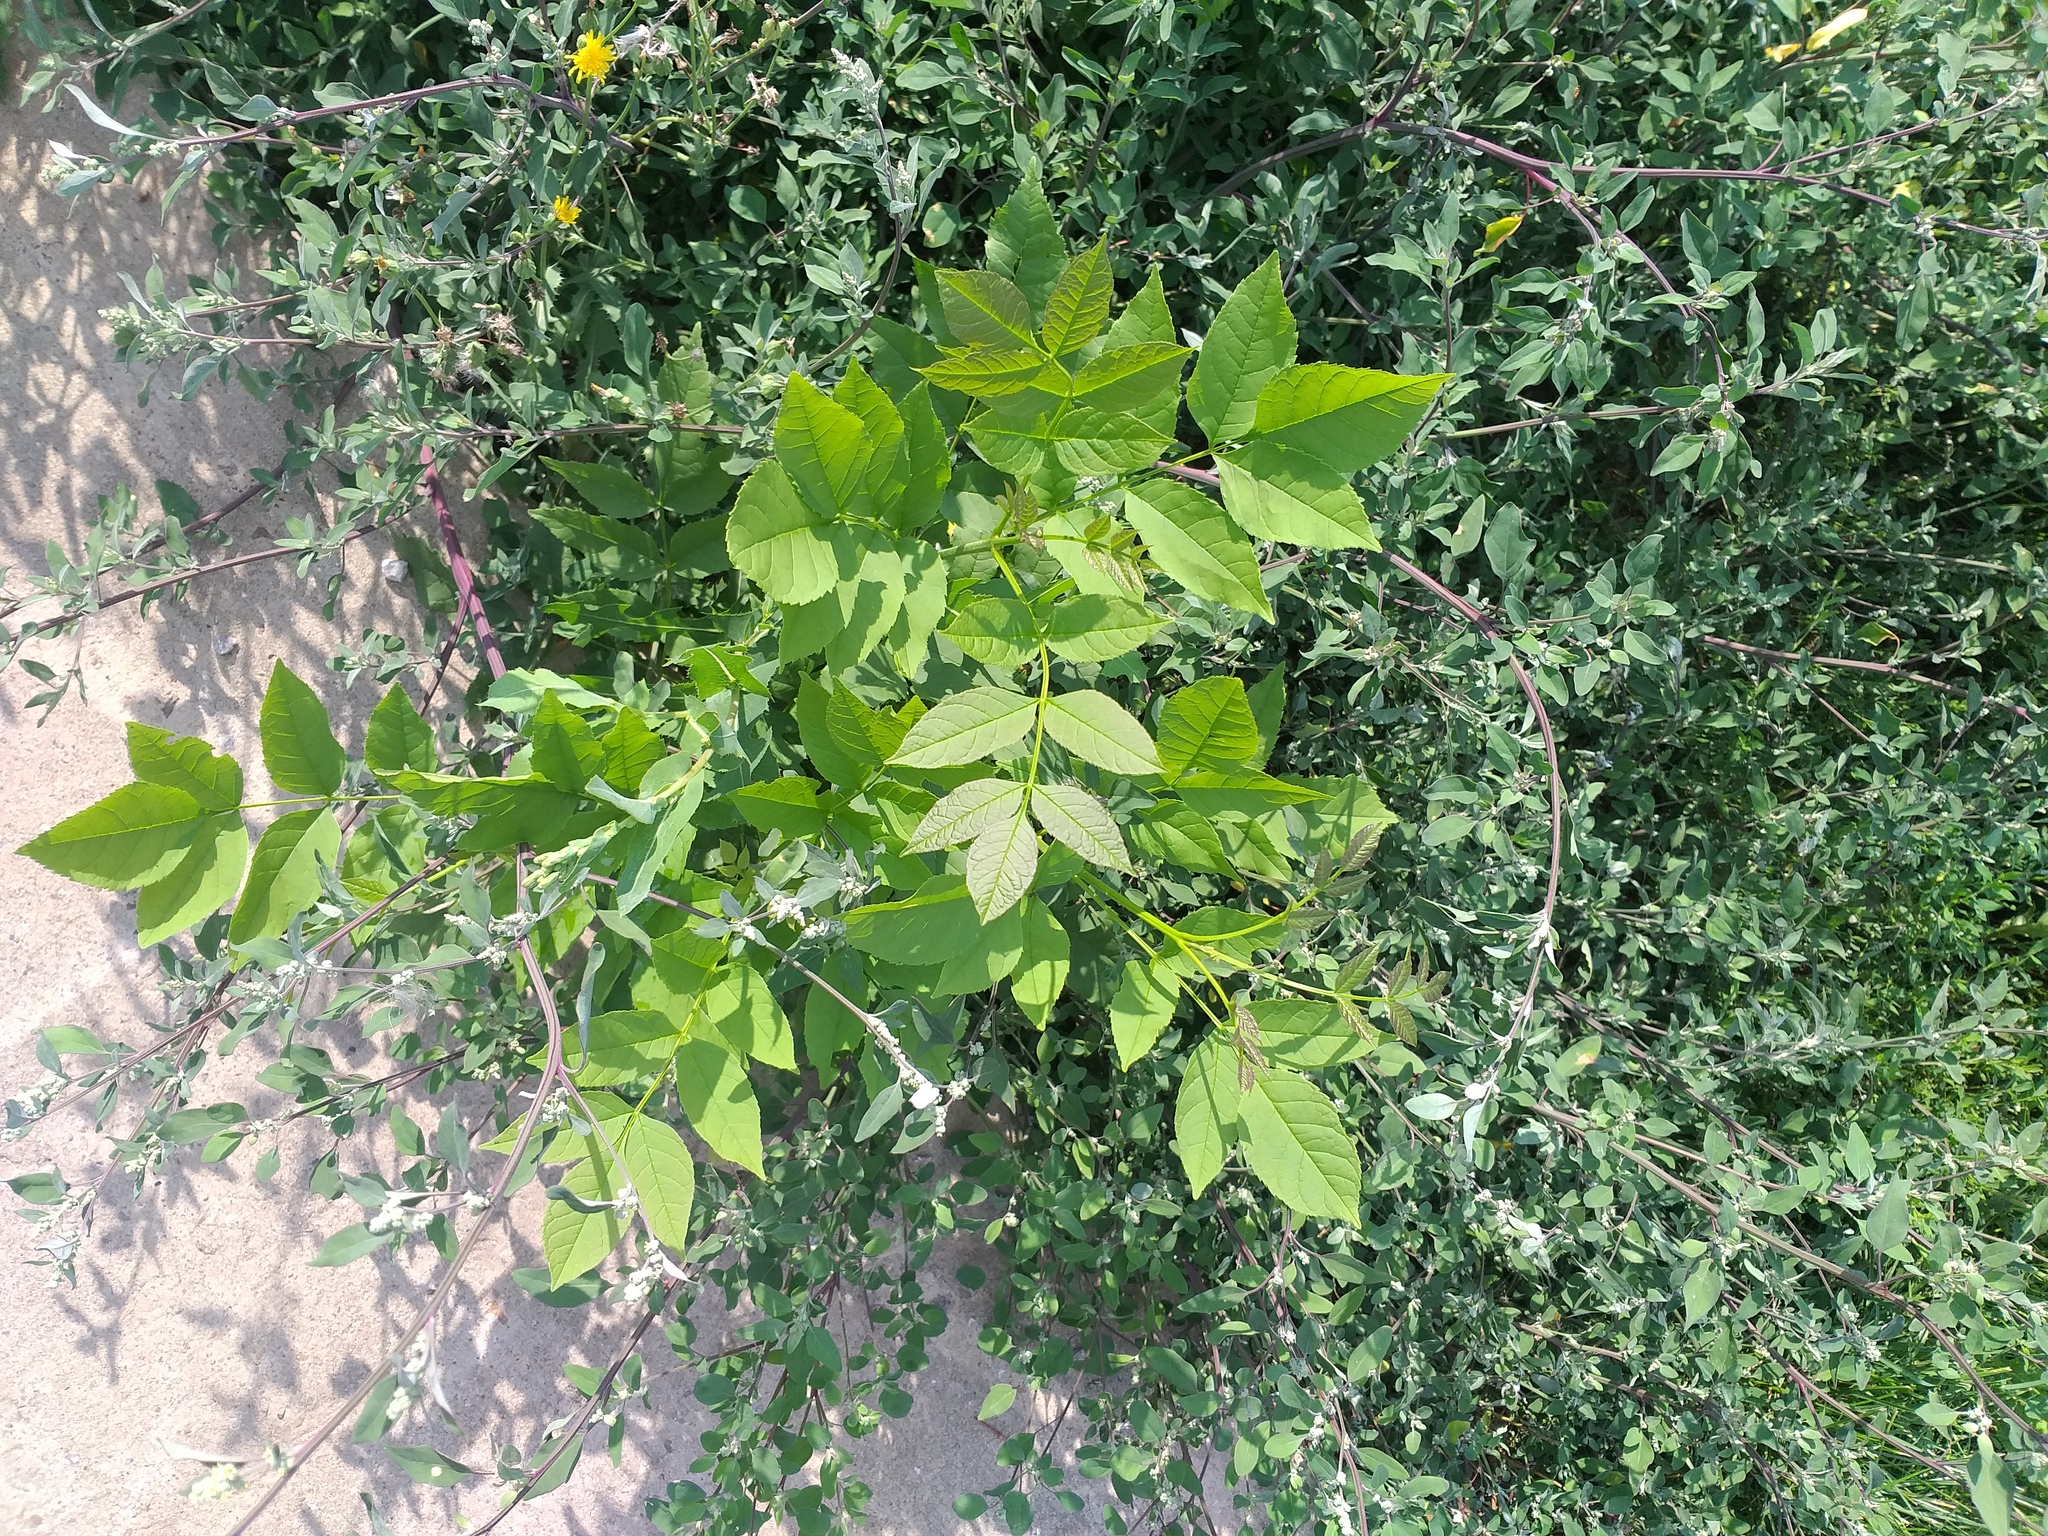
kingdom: Plantae
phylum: Tracheophyta
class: Magnoliopsida
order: Lamiales
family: Oleaceae
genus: Fraxinus
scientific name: Fraxinus pennsylvanica
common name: Green ash
